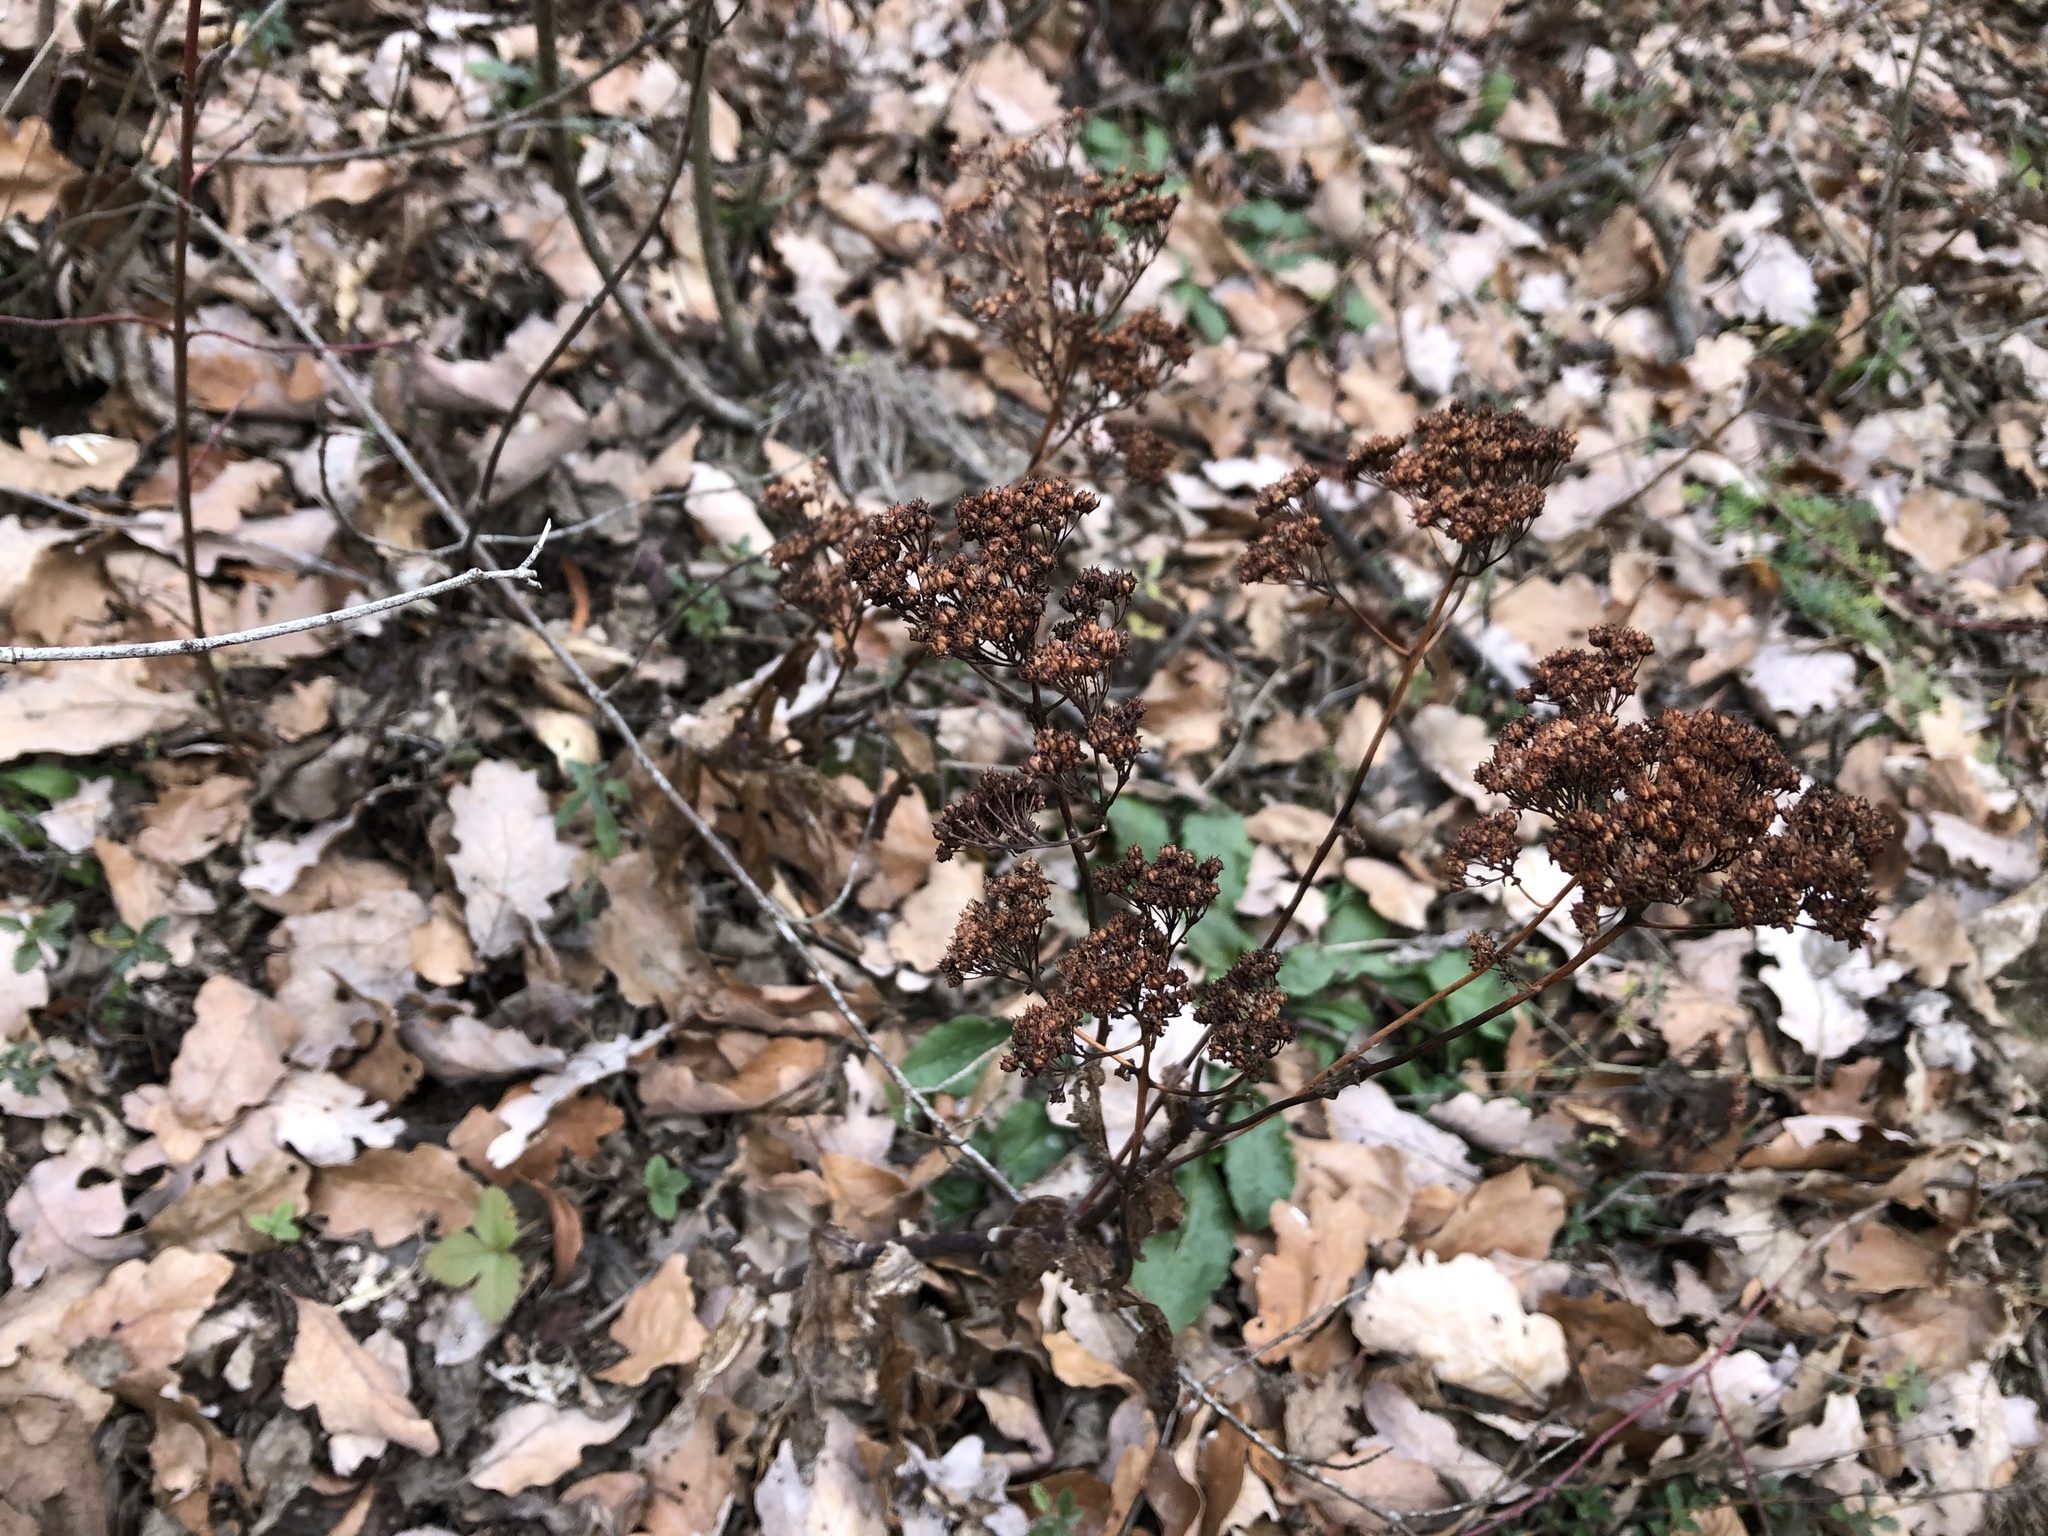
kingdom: Plantae
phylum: Tracheophyta
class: Magnoliopsida
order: Saxifragales
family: Crassulaceae
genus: Hylotelephium
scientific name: Hylotelephium
